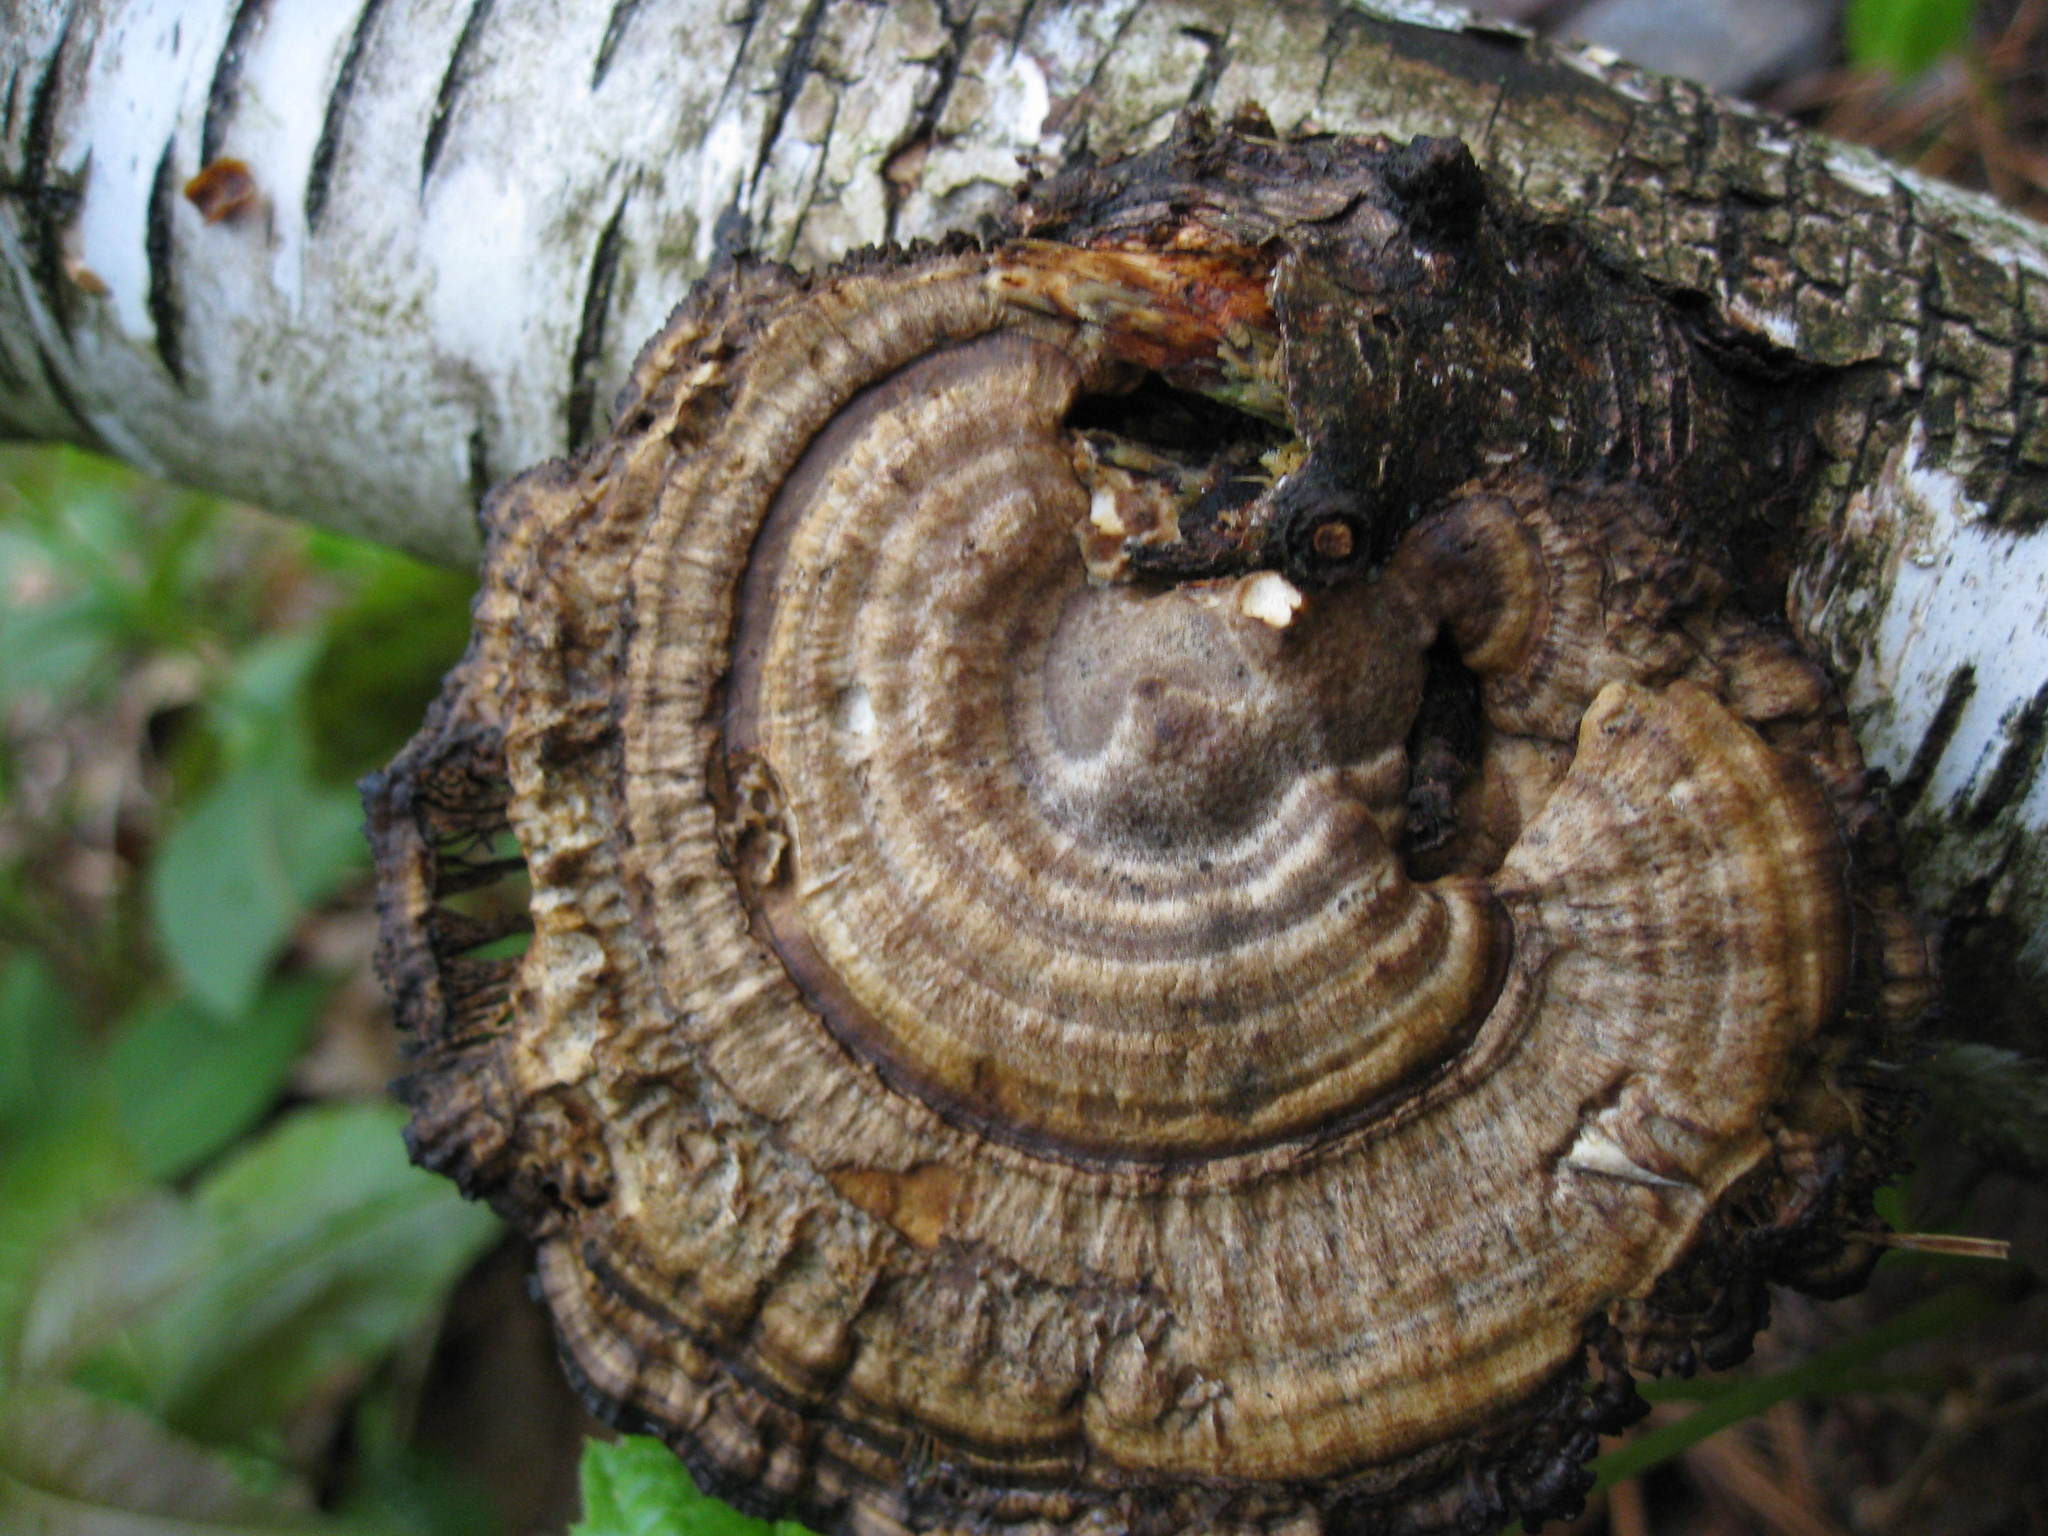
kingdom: Fungi
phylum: Basidiomycota
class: Agaricomycetes
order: Polyporales
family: Polyporaceae
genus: Daedaleopsis
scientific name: Daedaleopsis confragosa
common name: Blushing bracket
